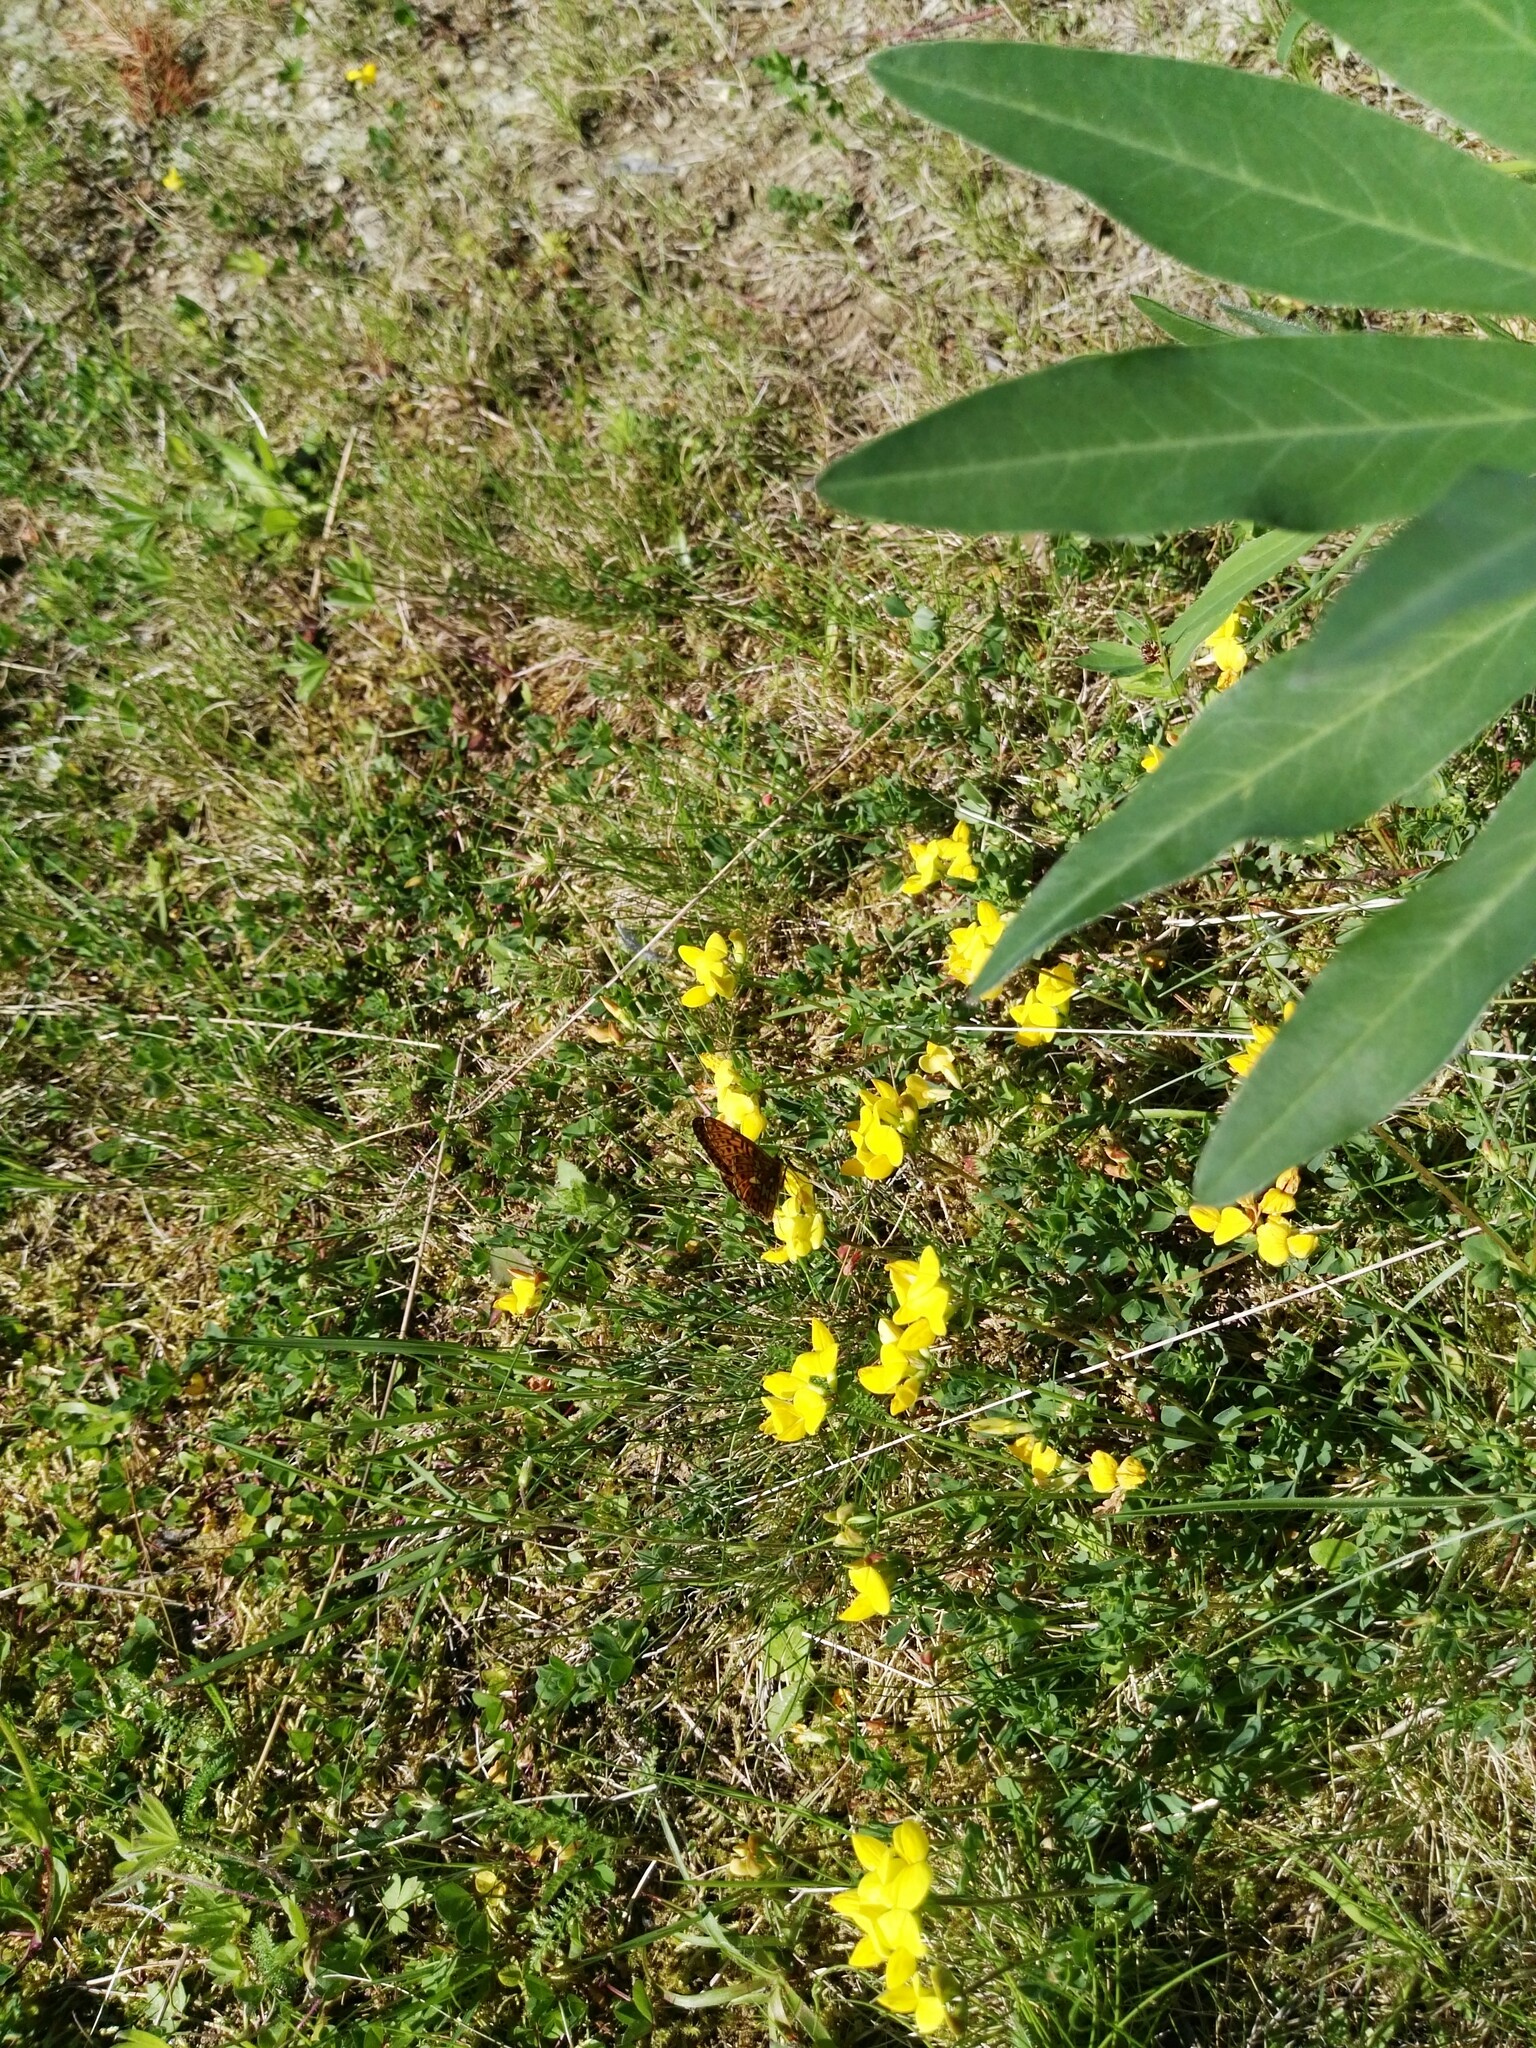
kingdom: Animalia
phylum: Arthropoda
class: Insecta
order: Lepidoptera
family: Nymphalidae
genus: Clossiana
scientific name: Clossiana euphrosyne
